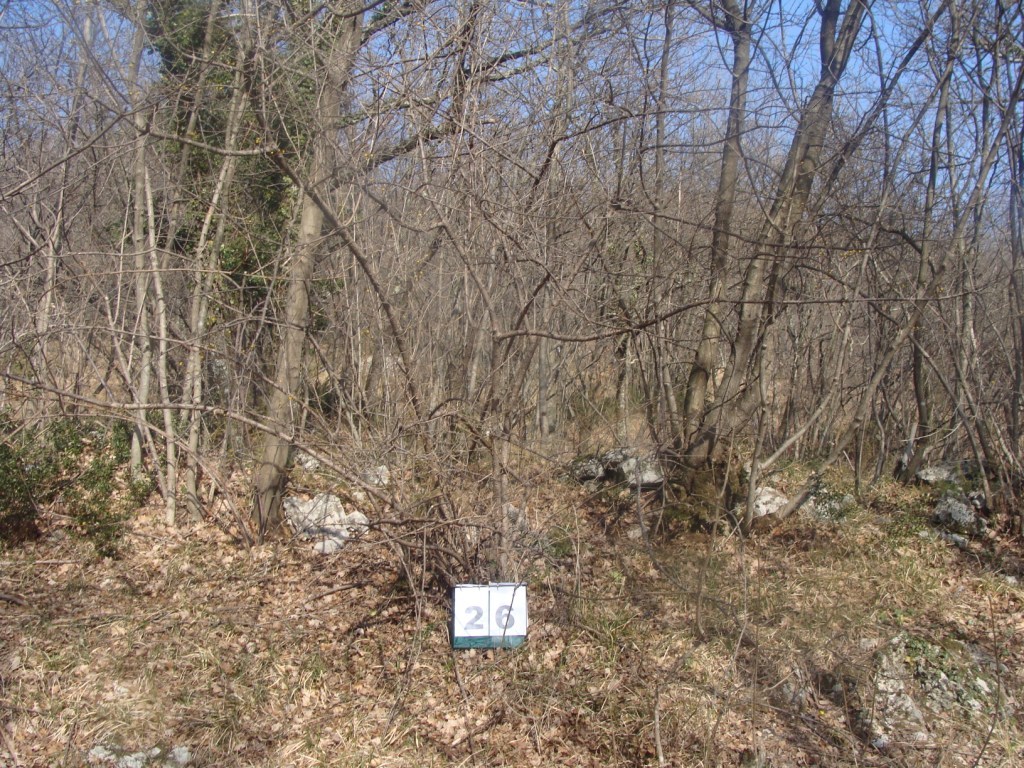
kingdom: Plantae
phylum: Tracheophyta
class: Magnoliopsida
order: Cornales
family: Cornaceae
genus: Cornus
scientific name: Cornus mas
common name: Cornelian-cherry
